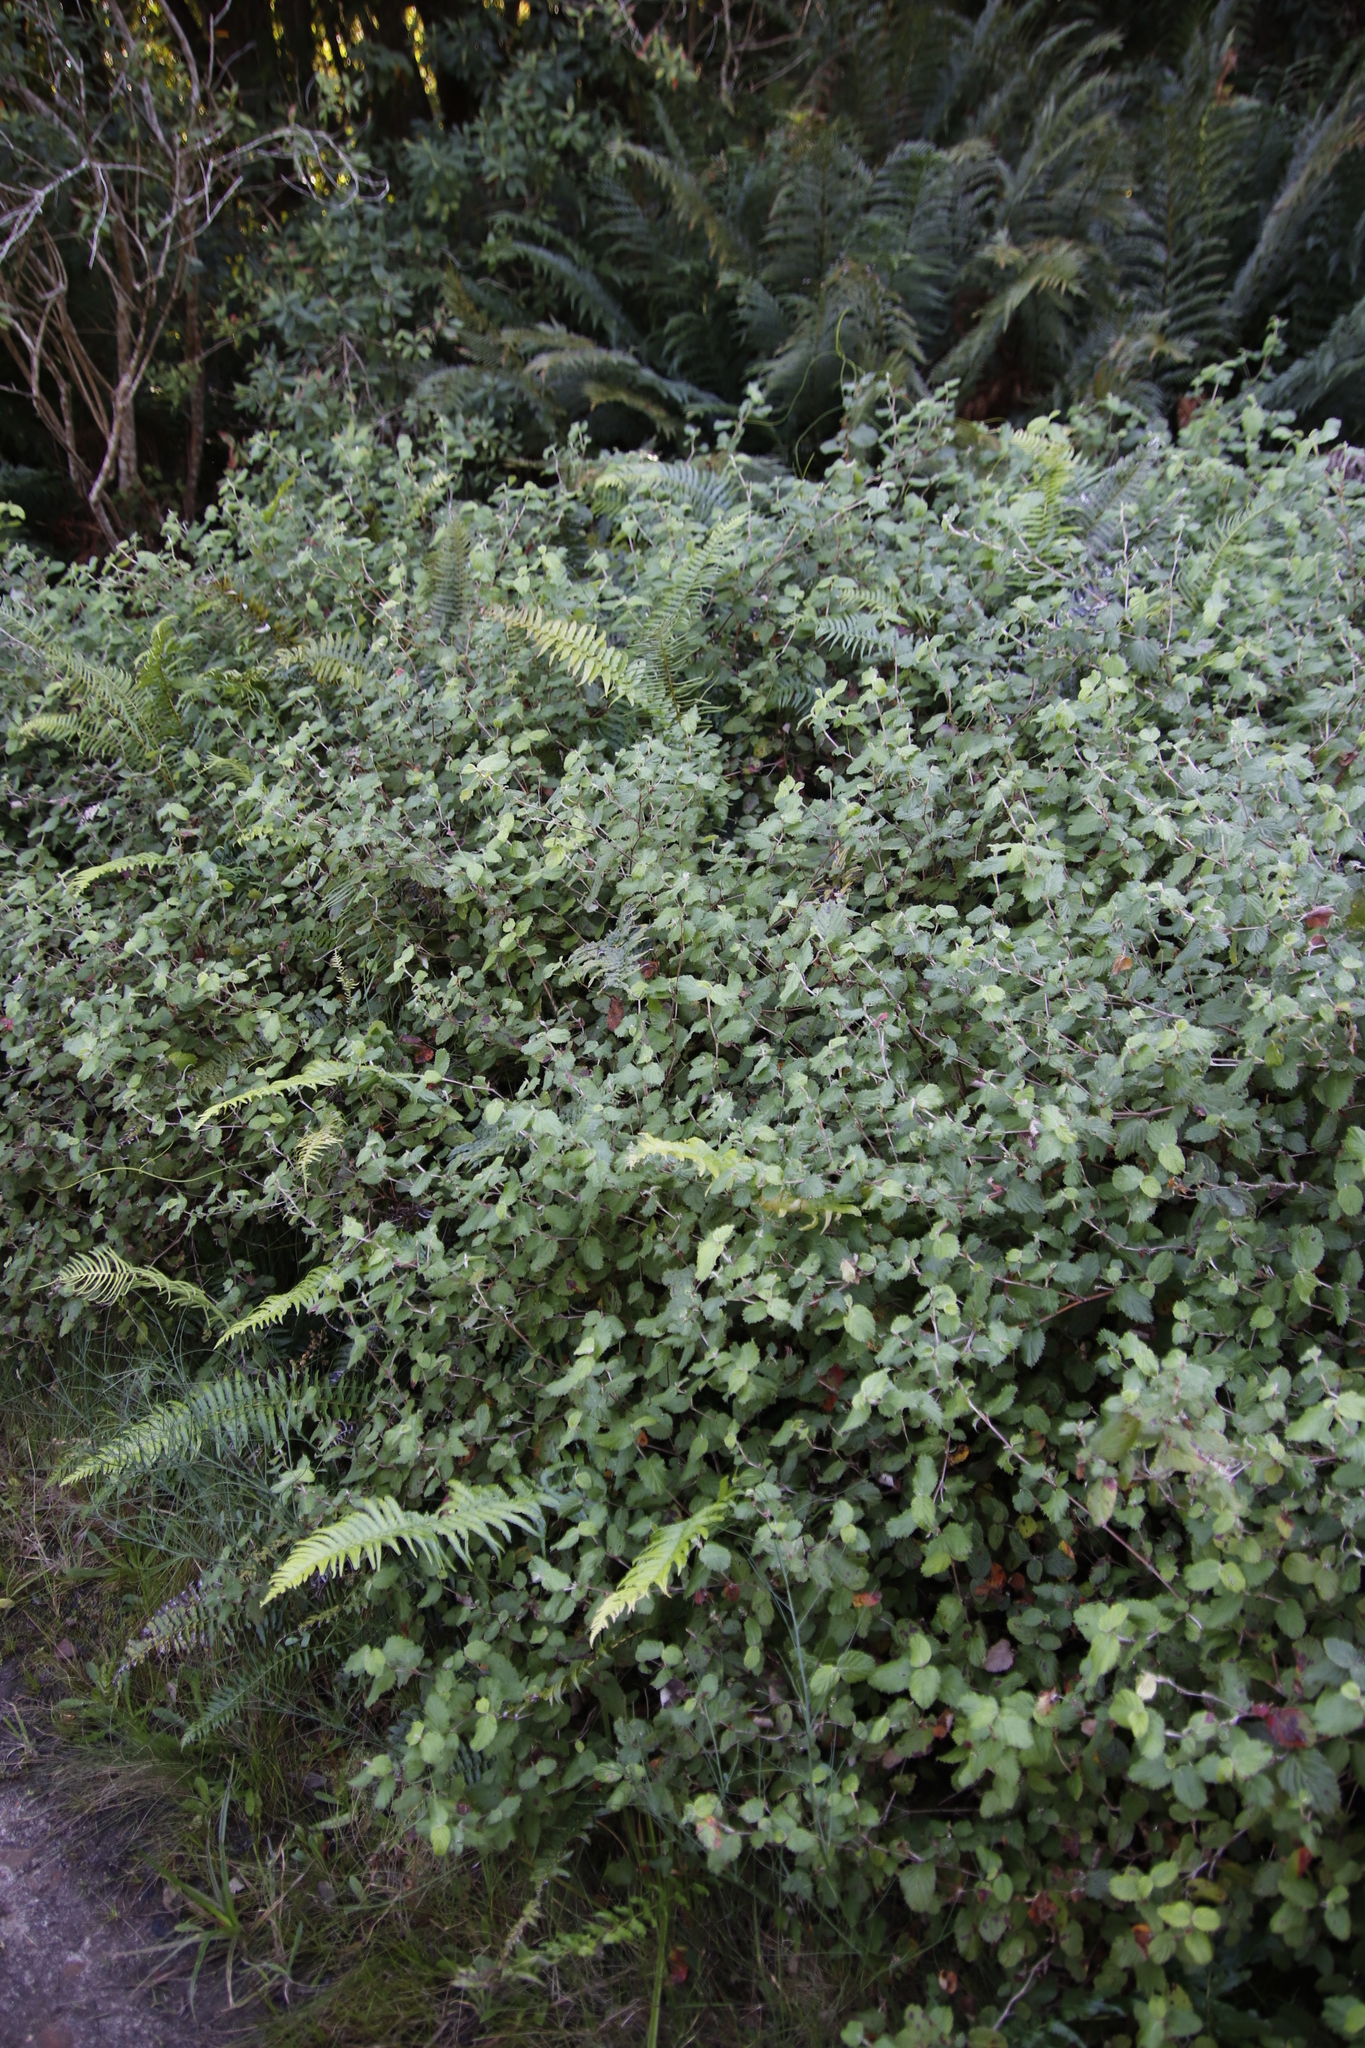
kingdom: Plantae
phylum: Tracheophyta
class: Magnoliopsida
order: Rosales
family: Rosaceae
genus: Cliffortia
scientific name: Cliffortia odorata
